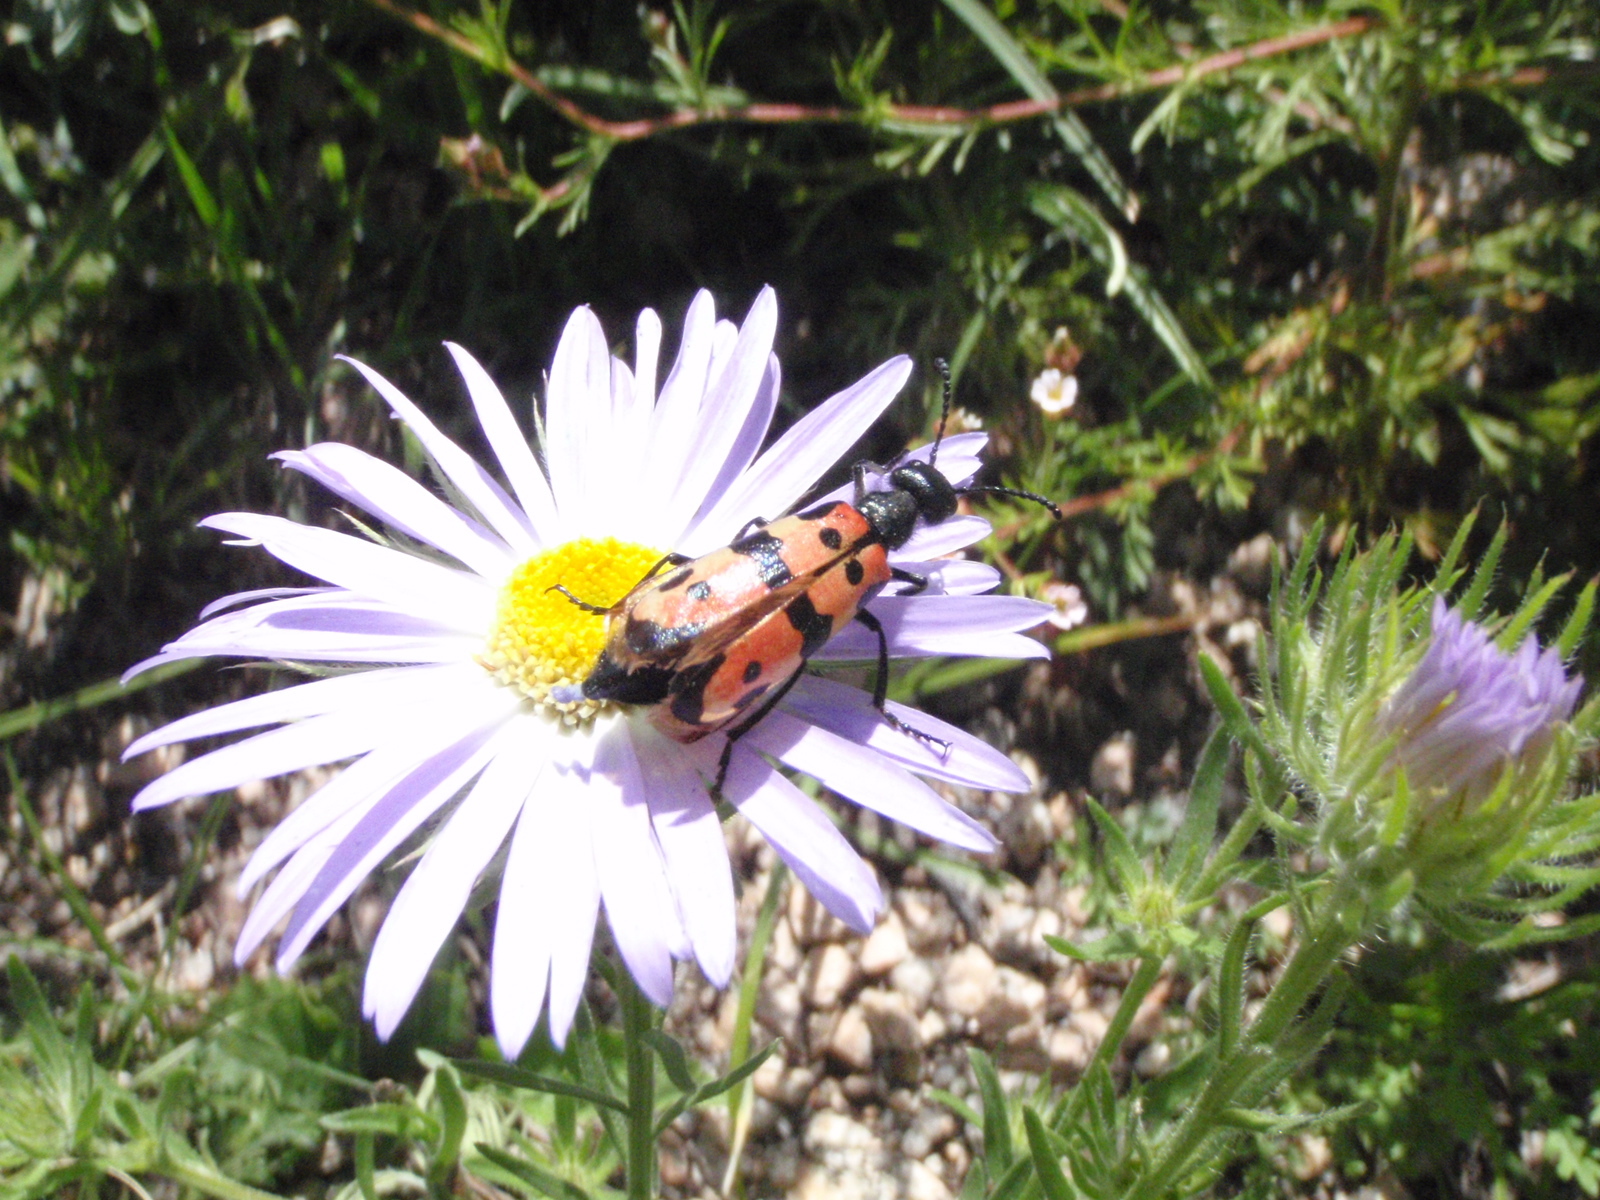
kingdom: Animalia
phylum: Arthropoda
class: Insecta
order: Coleoptera
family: Meloidae
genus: Mylabris
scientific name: Mylabris speciosa
